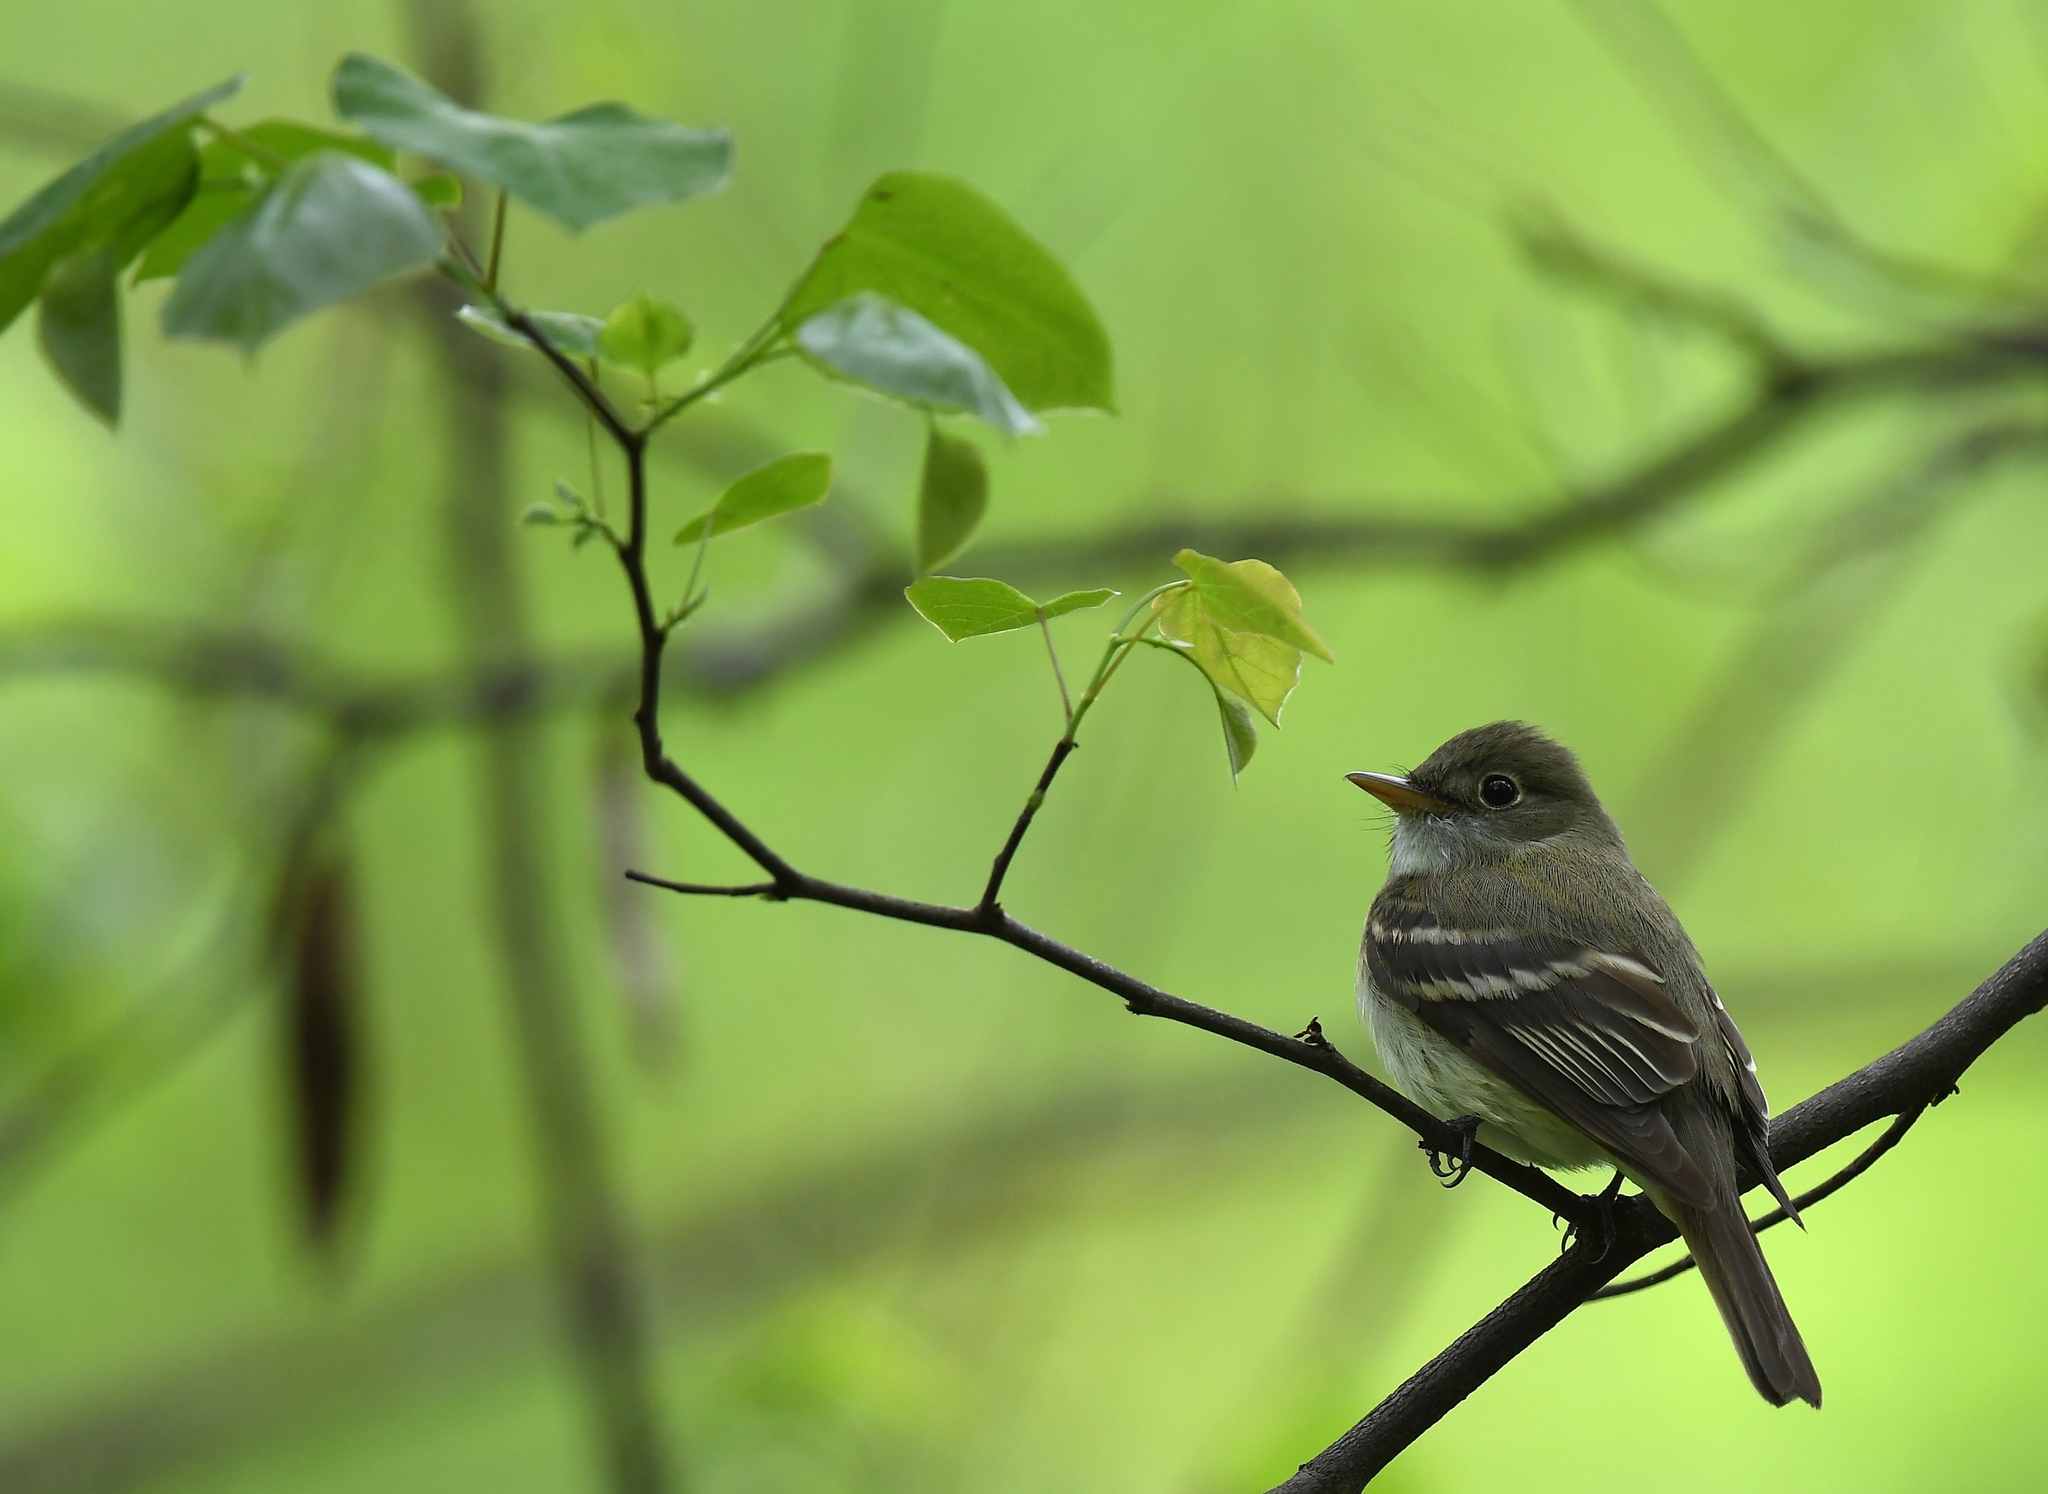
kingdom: Animalia
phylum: Chordata
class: Aves
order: Passeriformes
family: Tyrannidae
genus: Empidonax
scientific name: Empidonax virescens
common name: Acadian flycatcher
